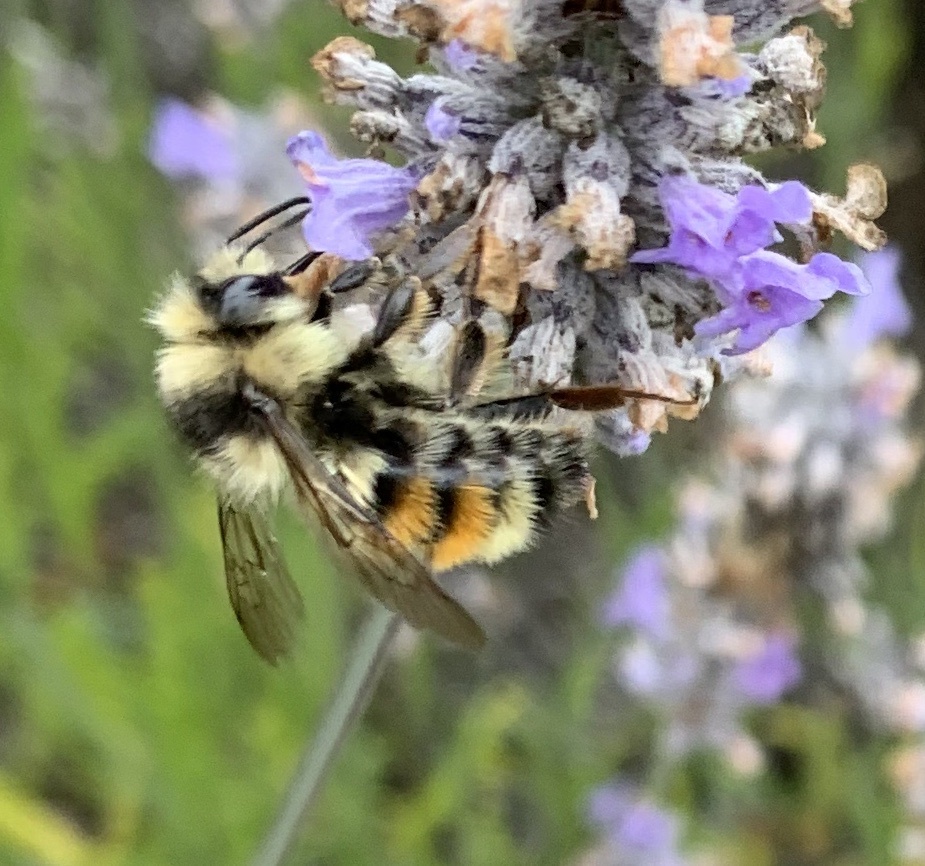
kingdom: Animalia
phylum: Arthropoda
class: Insecta
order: Hymenoptera
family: Apidae
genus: Bombus
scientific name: Bombus vancouverensis
